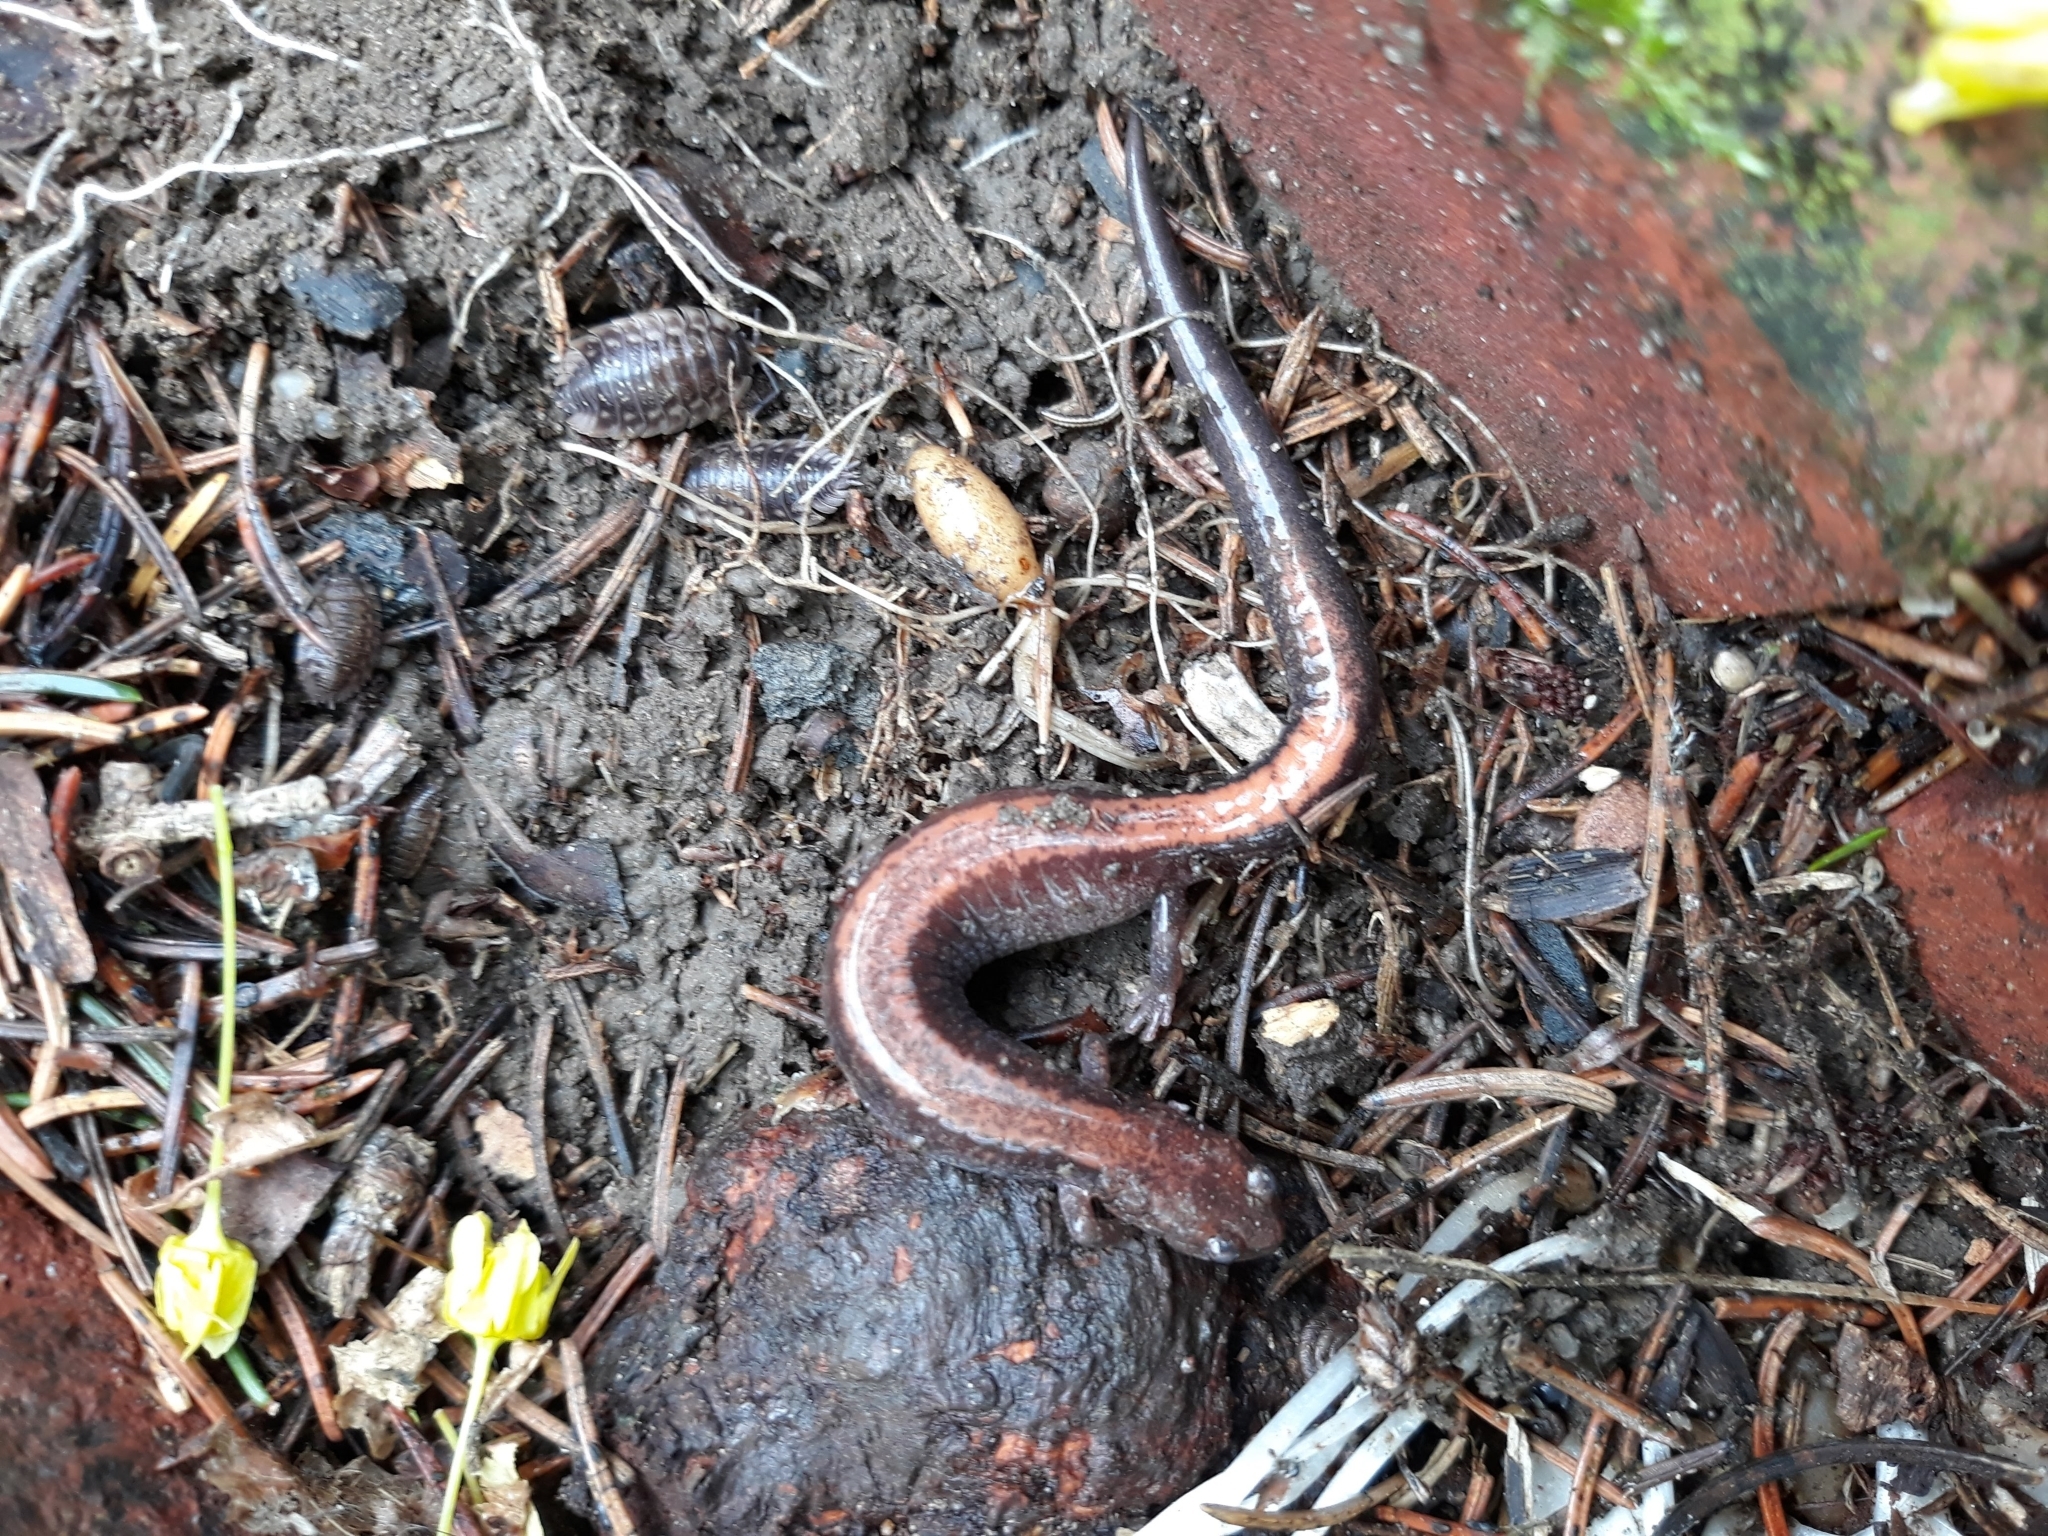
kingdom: Animalia
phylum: Chordata
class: Amphibia
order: Caudata
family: Plethodontidae
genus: Plethodon
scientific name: Plethodon cinereus
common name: Redback salamander
